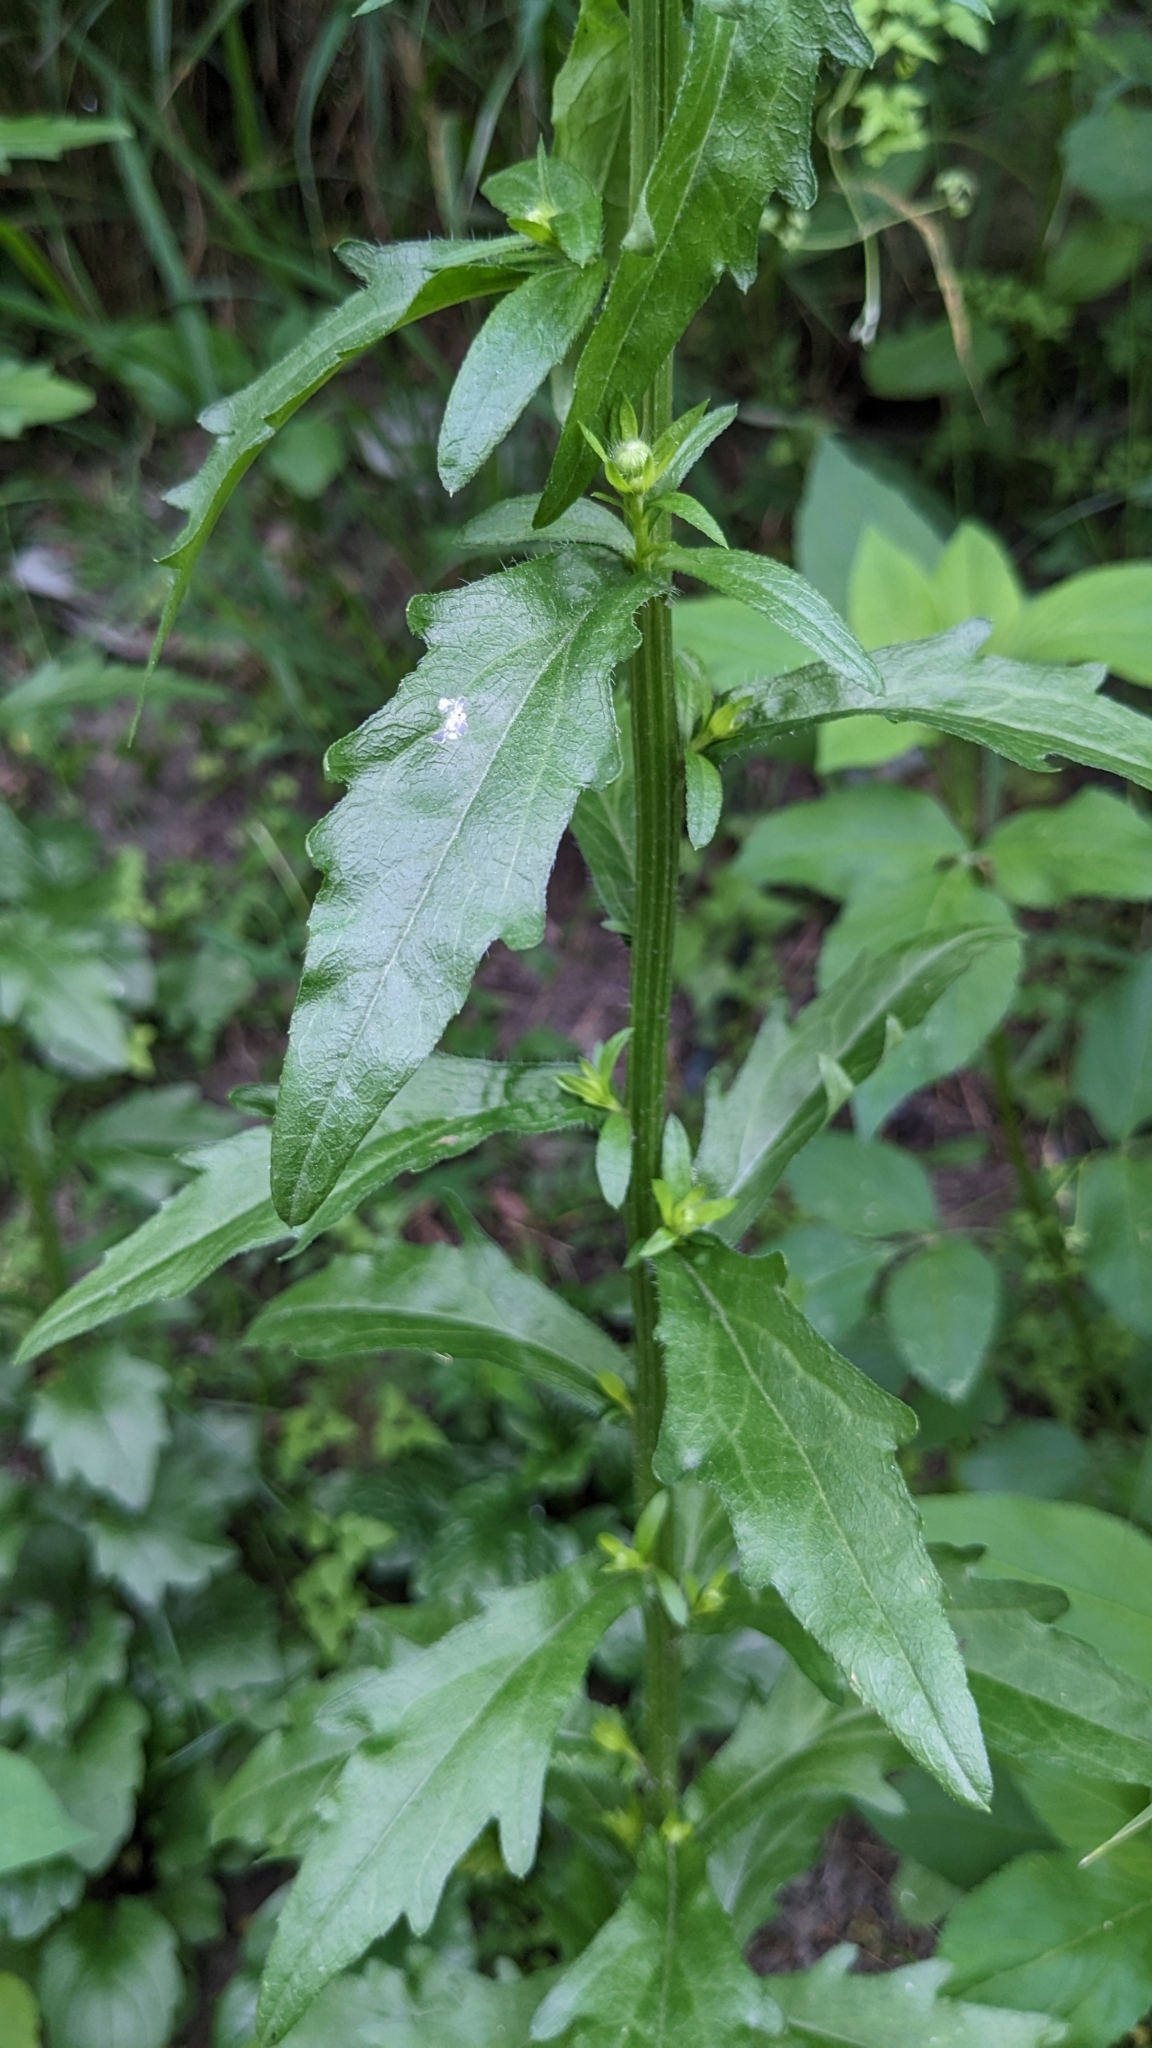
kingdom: Plantae
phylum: Tracheophyta
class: Magnoliopsida
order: Asterales
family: Asteraceae
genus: Erigeron
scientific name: Erigeron annuus
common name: Tall fleabane
